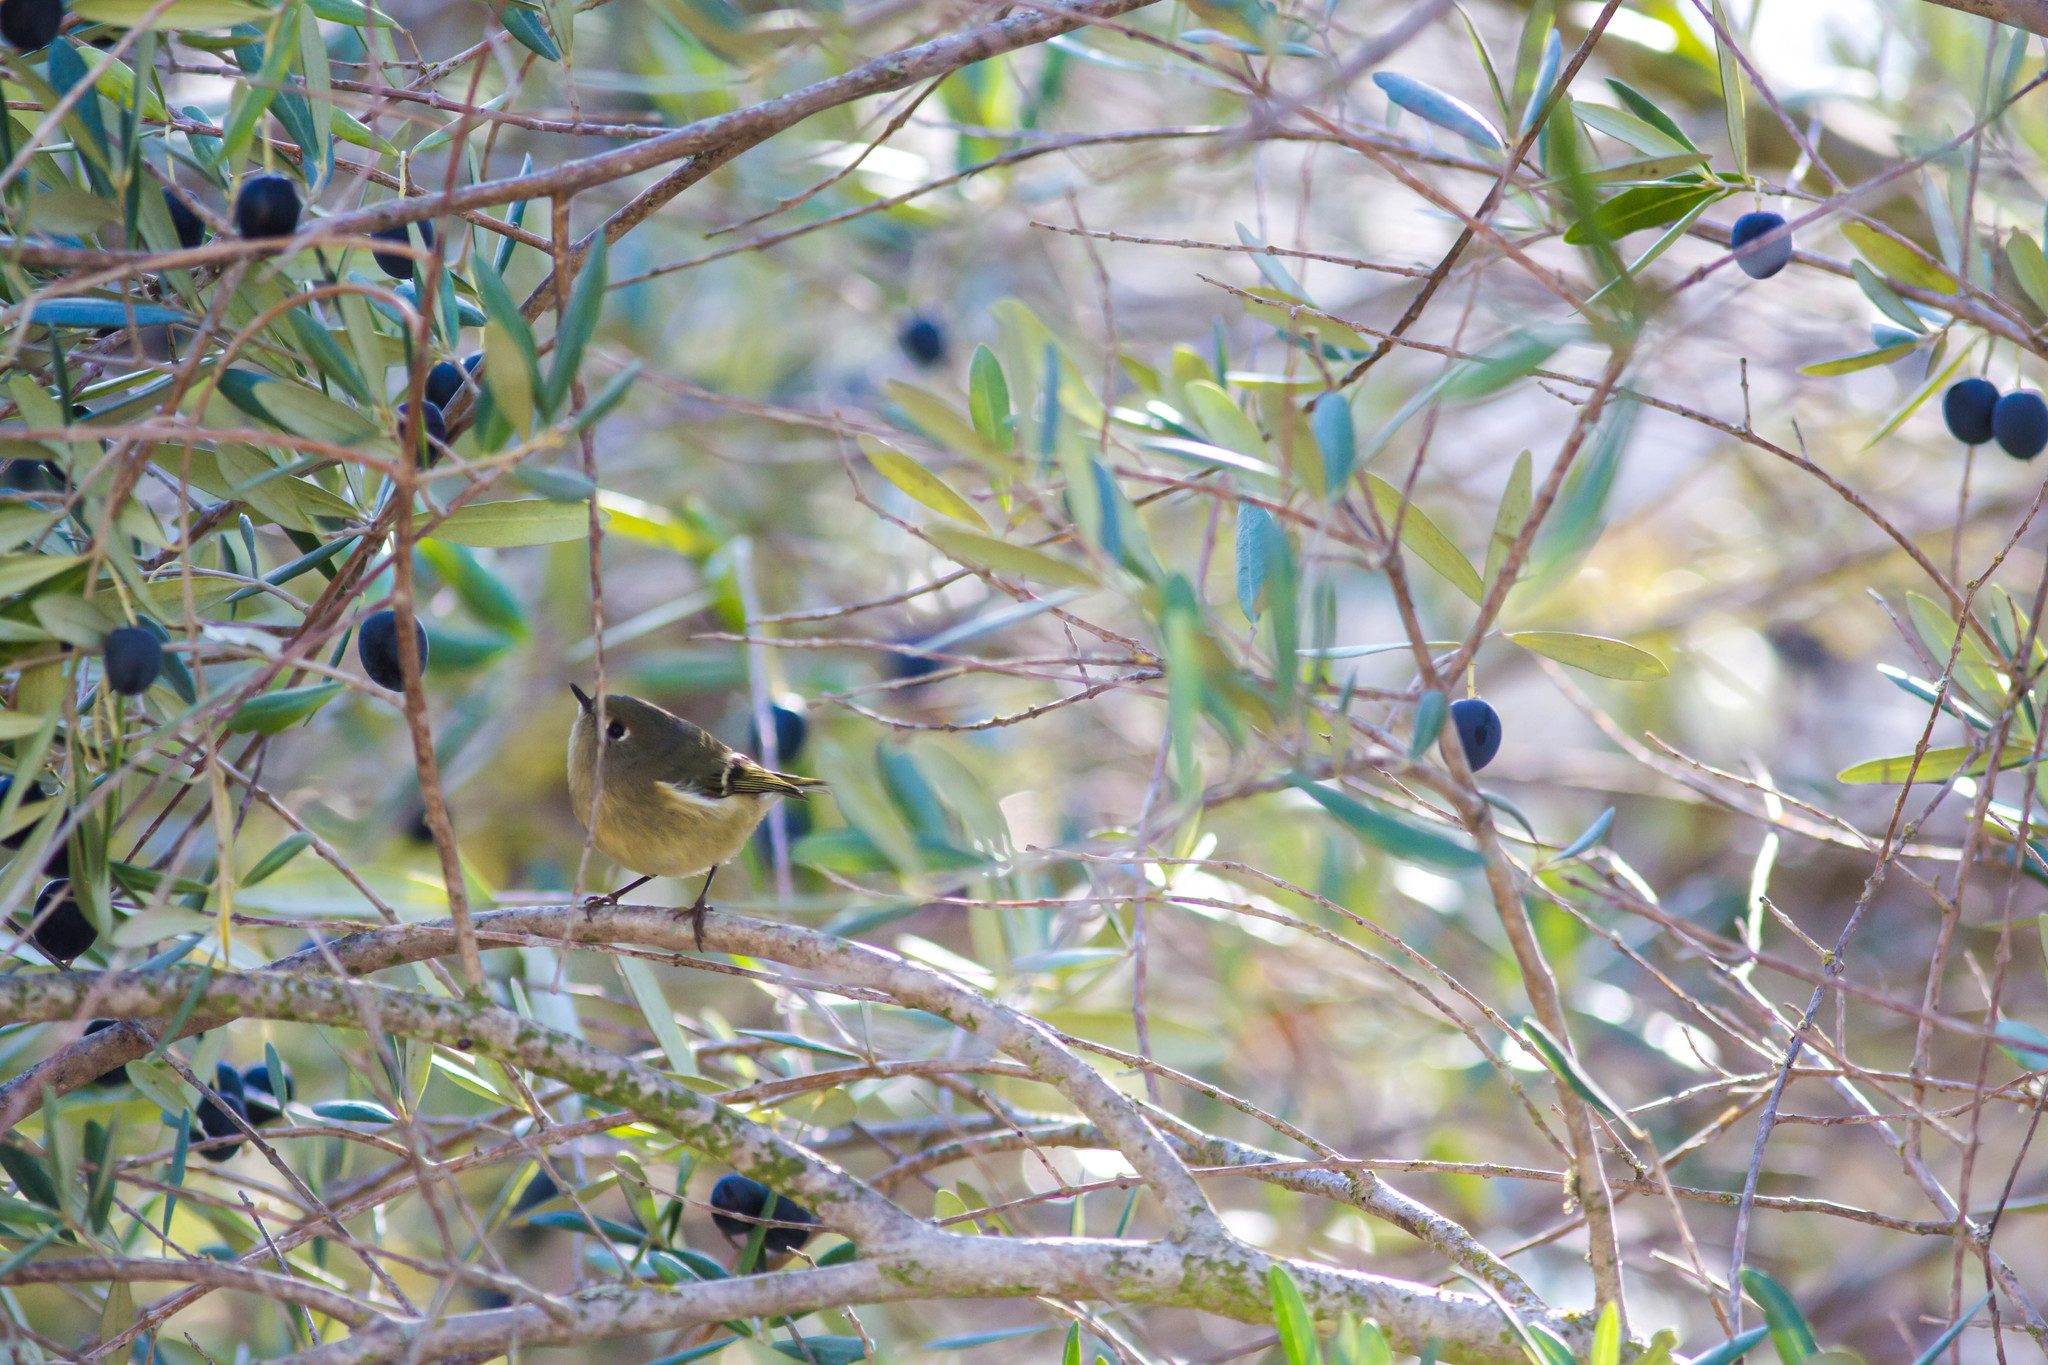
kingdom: Animalia
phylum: Chordata
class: Aves
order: Passeriformes
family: Regulidae
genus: Regulus
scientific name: Regulus calendula
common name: Ruby-crowned kinglet
